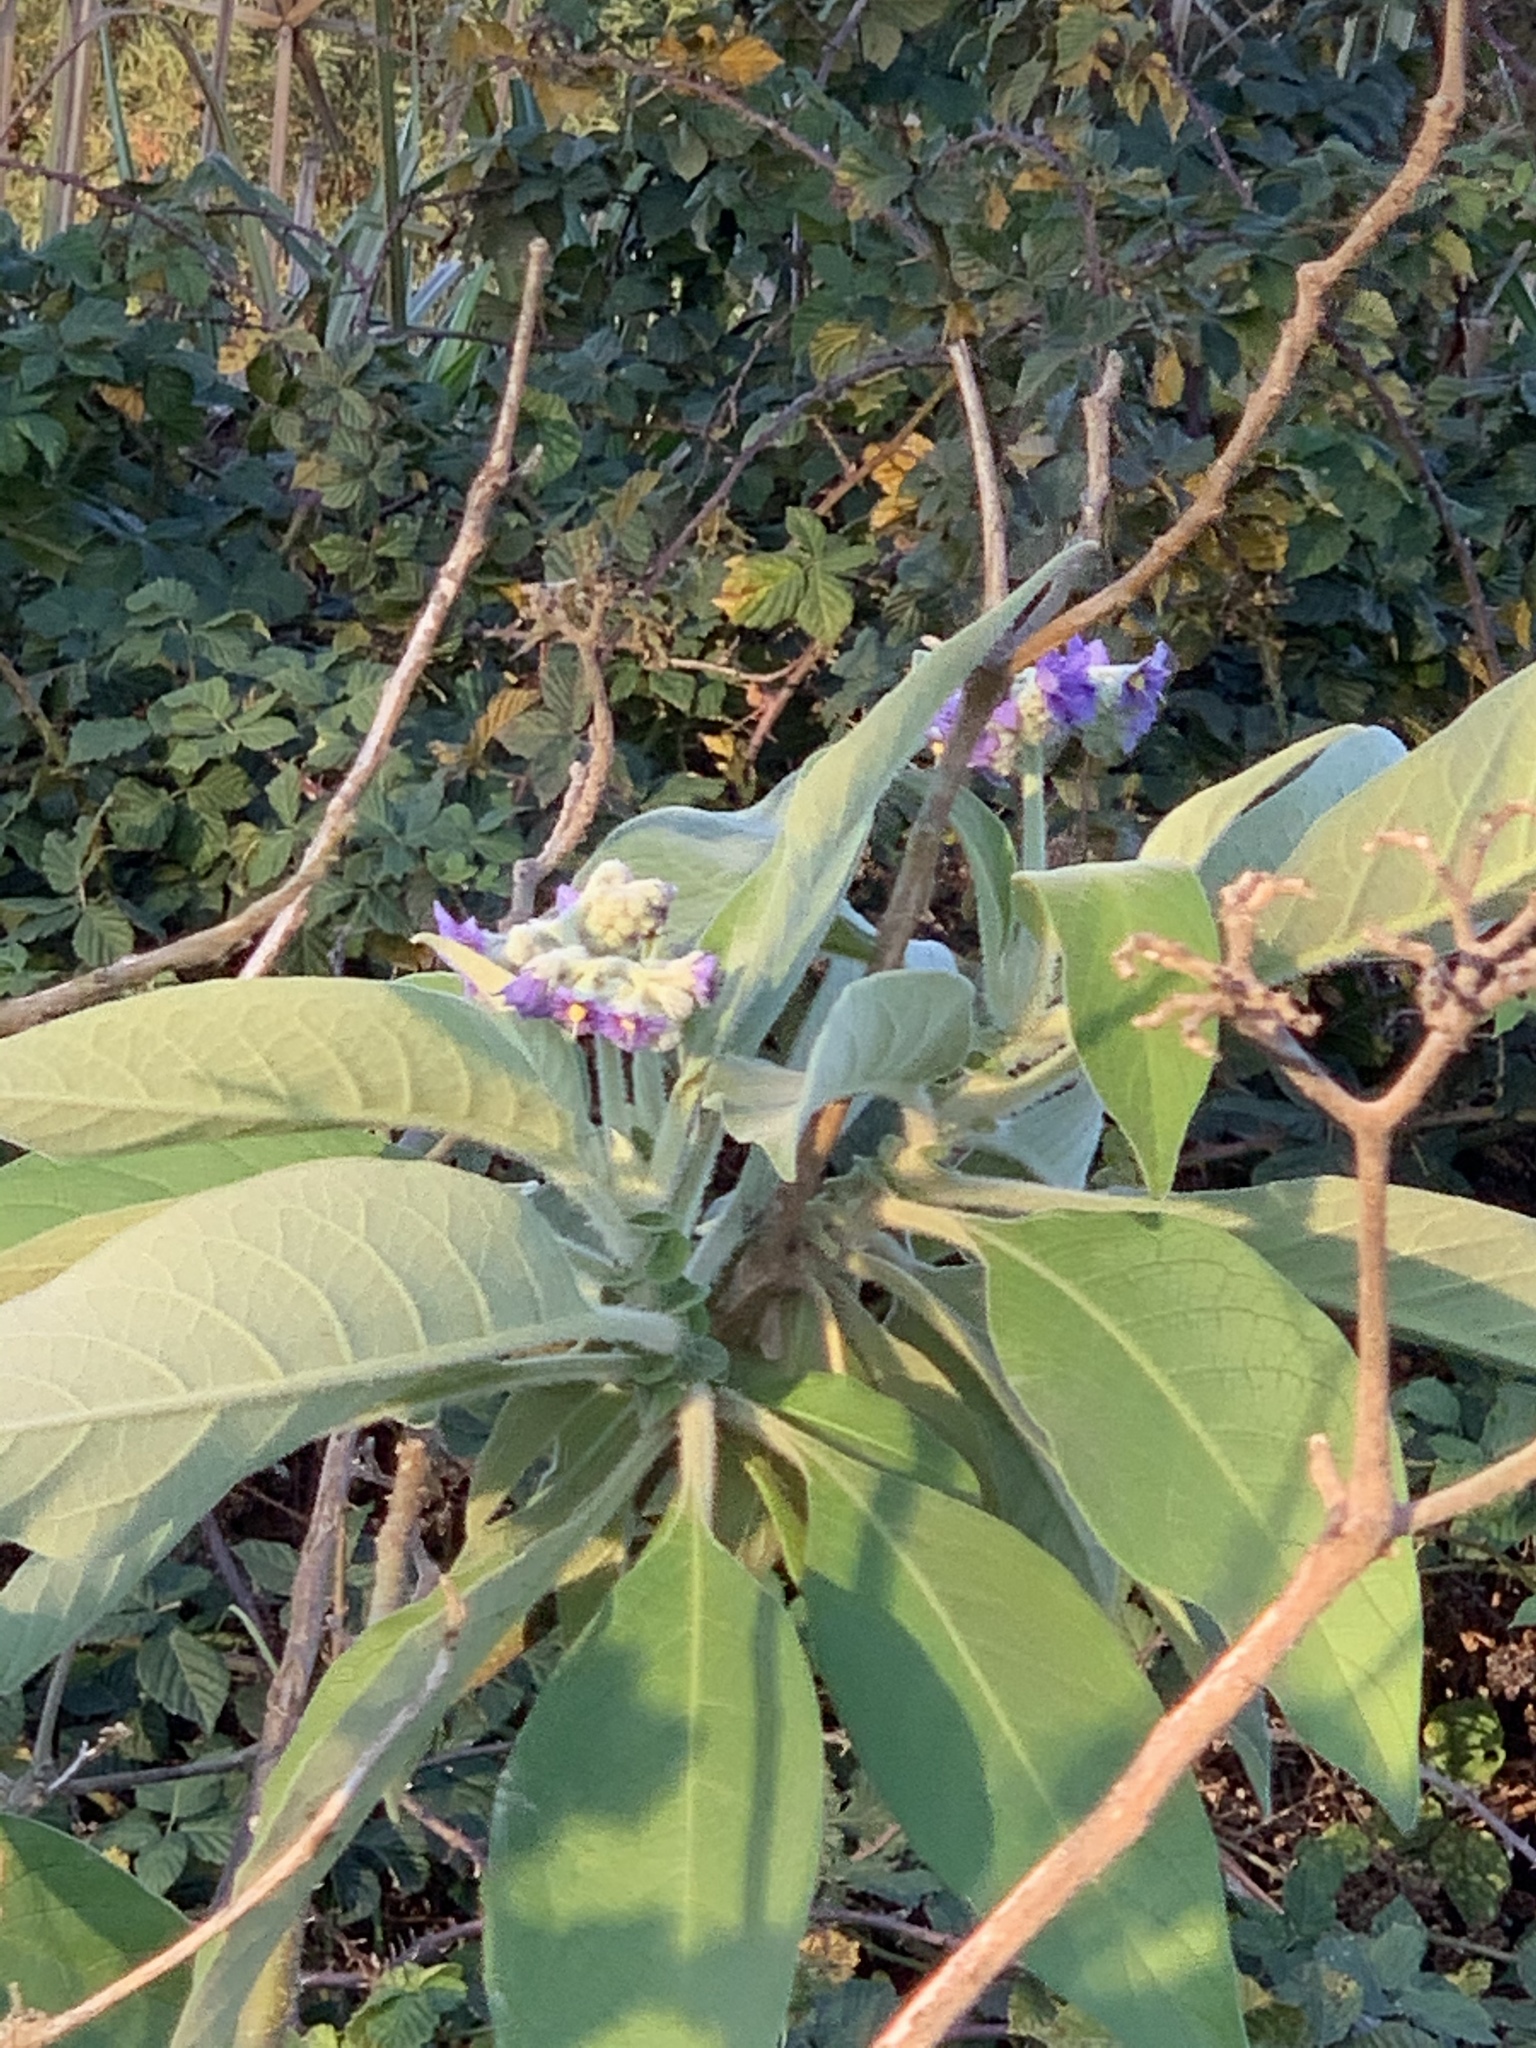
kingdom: Plantae
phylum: Tracheophyta
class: Magnoliopsida
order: Solanales
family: Solanaceae
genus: Solanum
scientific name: Solanum mauritianum
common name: Earleaf nightshade
